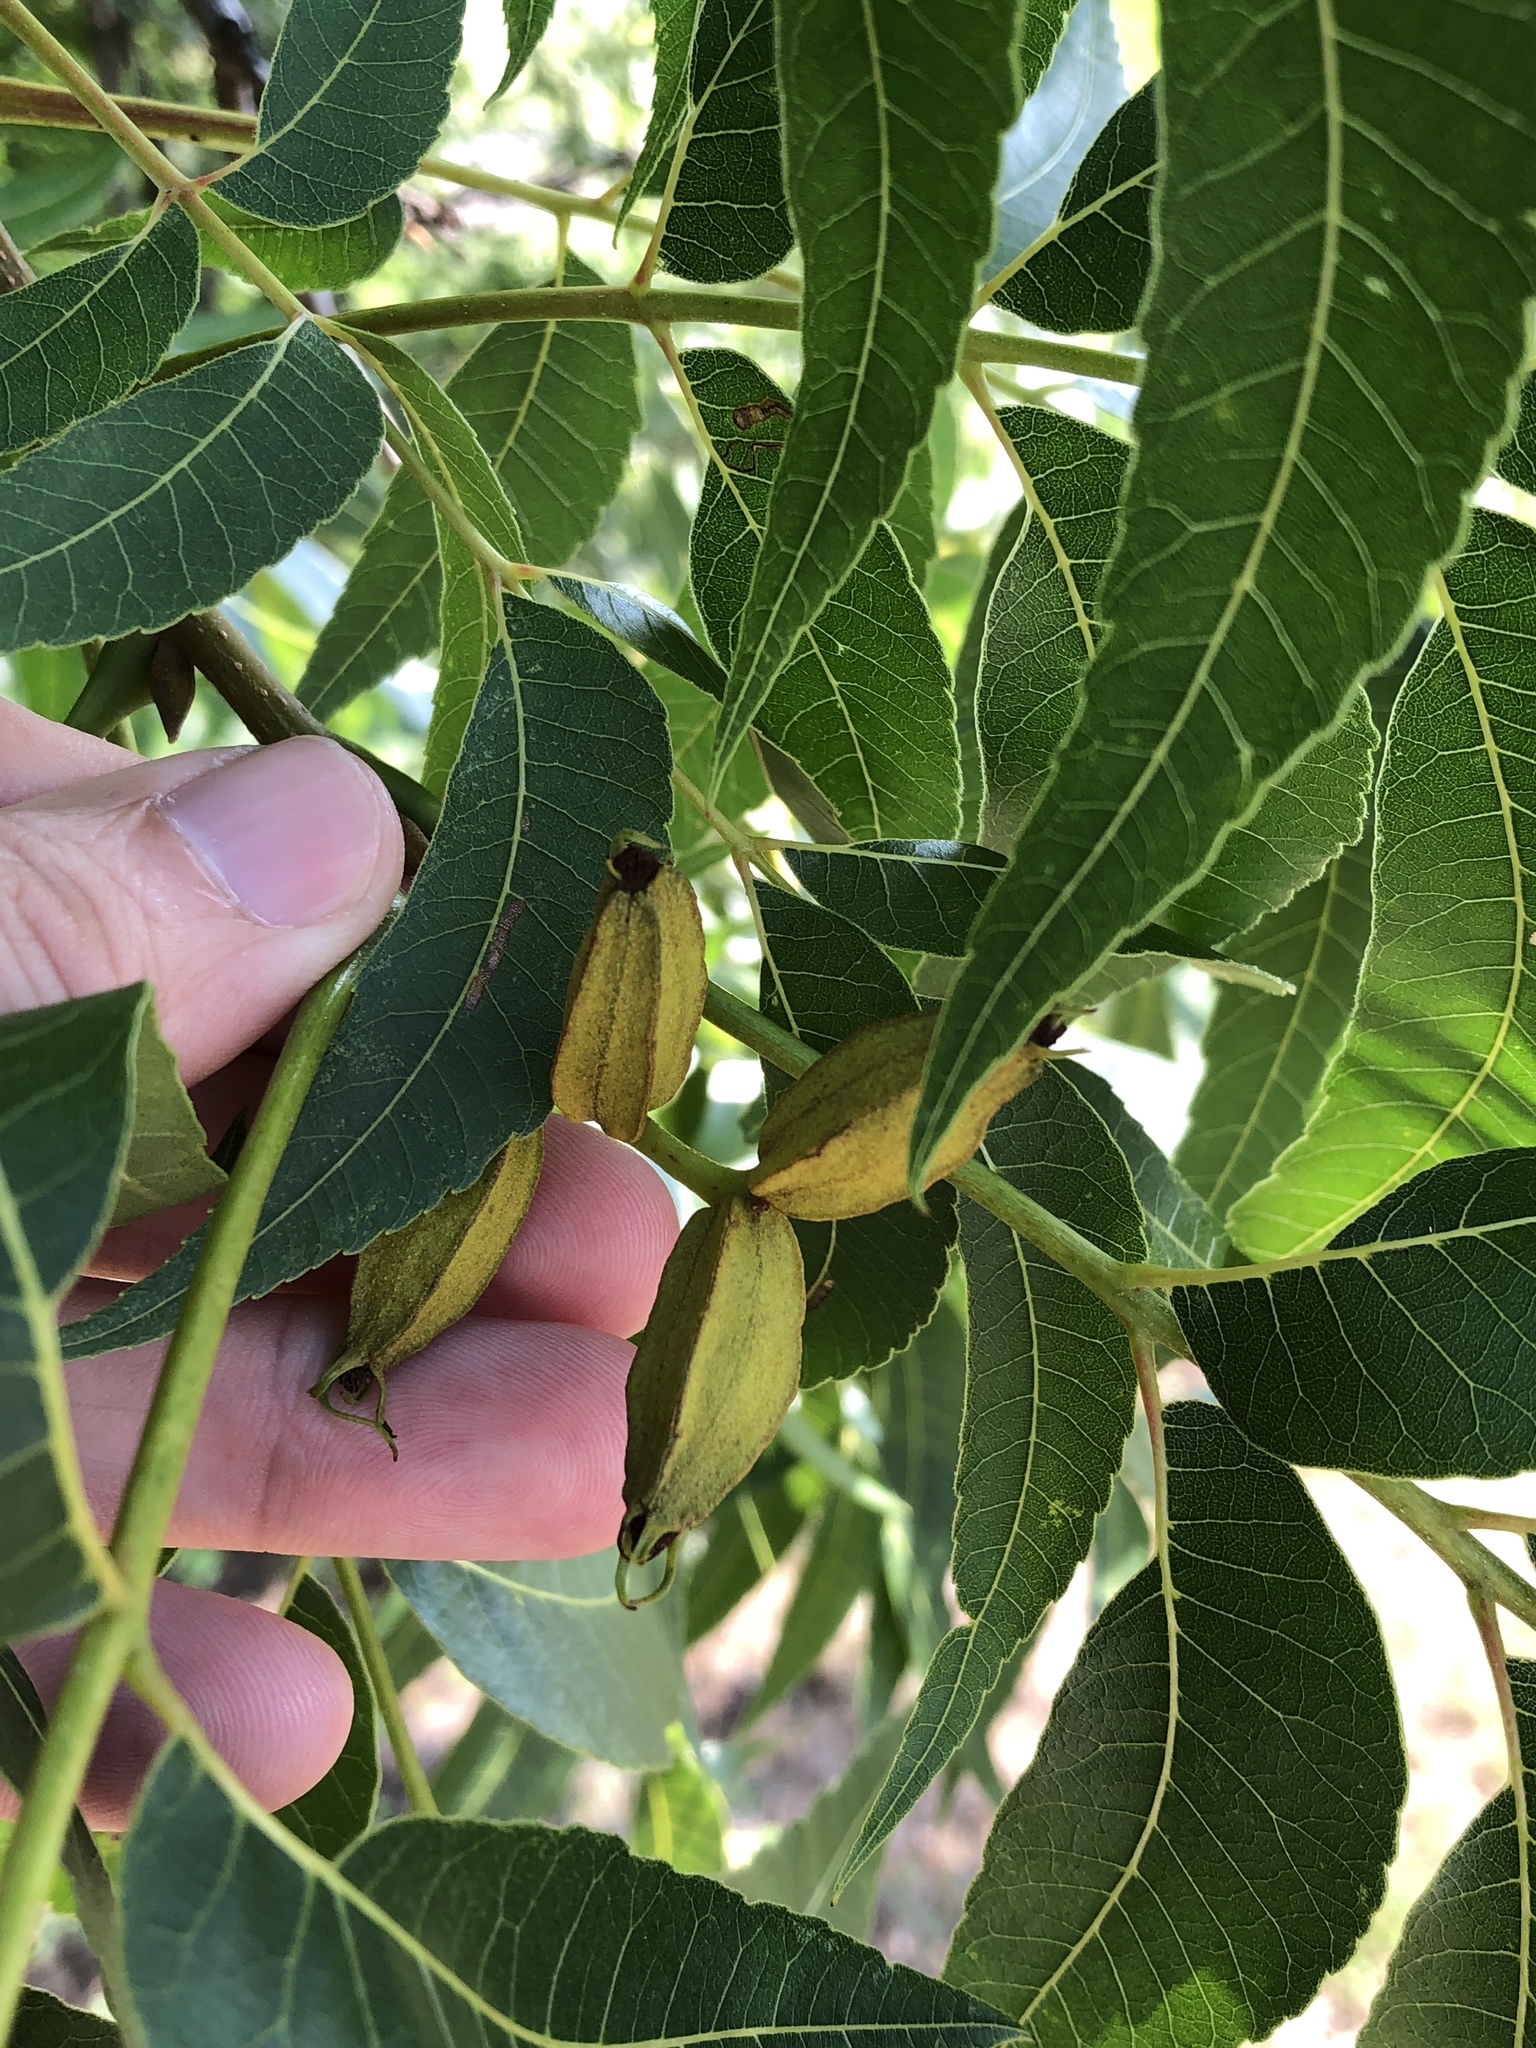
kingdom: Plantae
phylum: Tracheophyta
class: Magnoliopsida
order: Fagales
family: Juglandaceae
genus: Carya
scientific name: Carya illinoinensis
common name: Pecan
